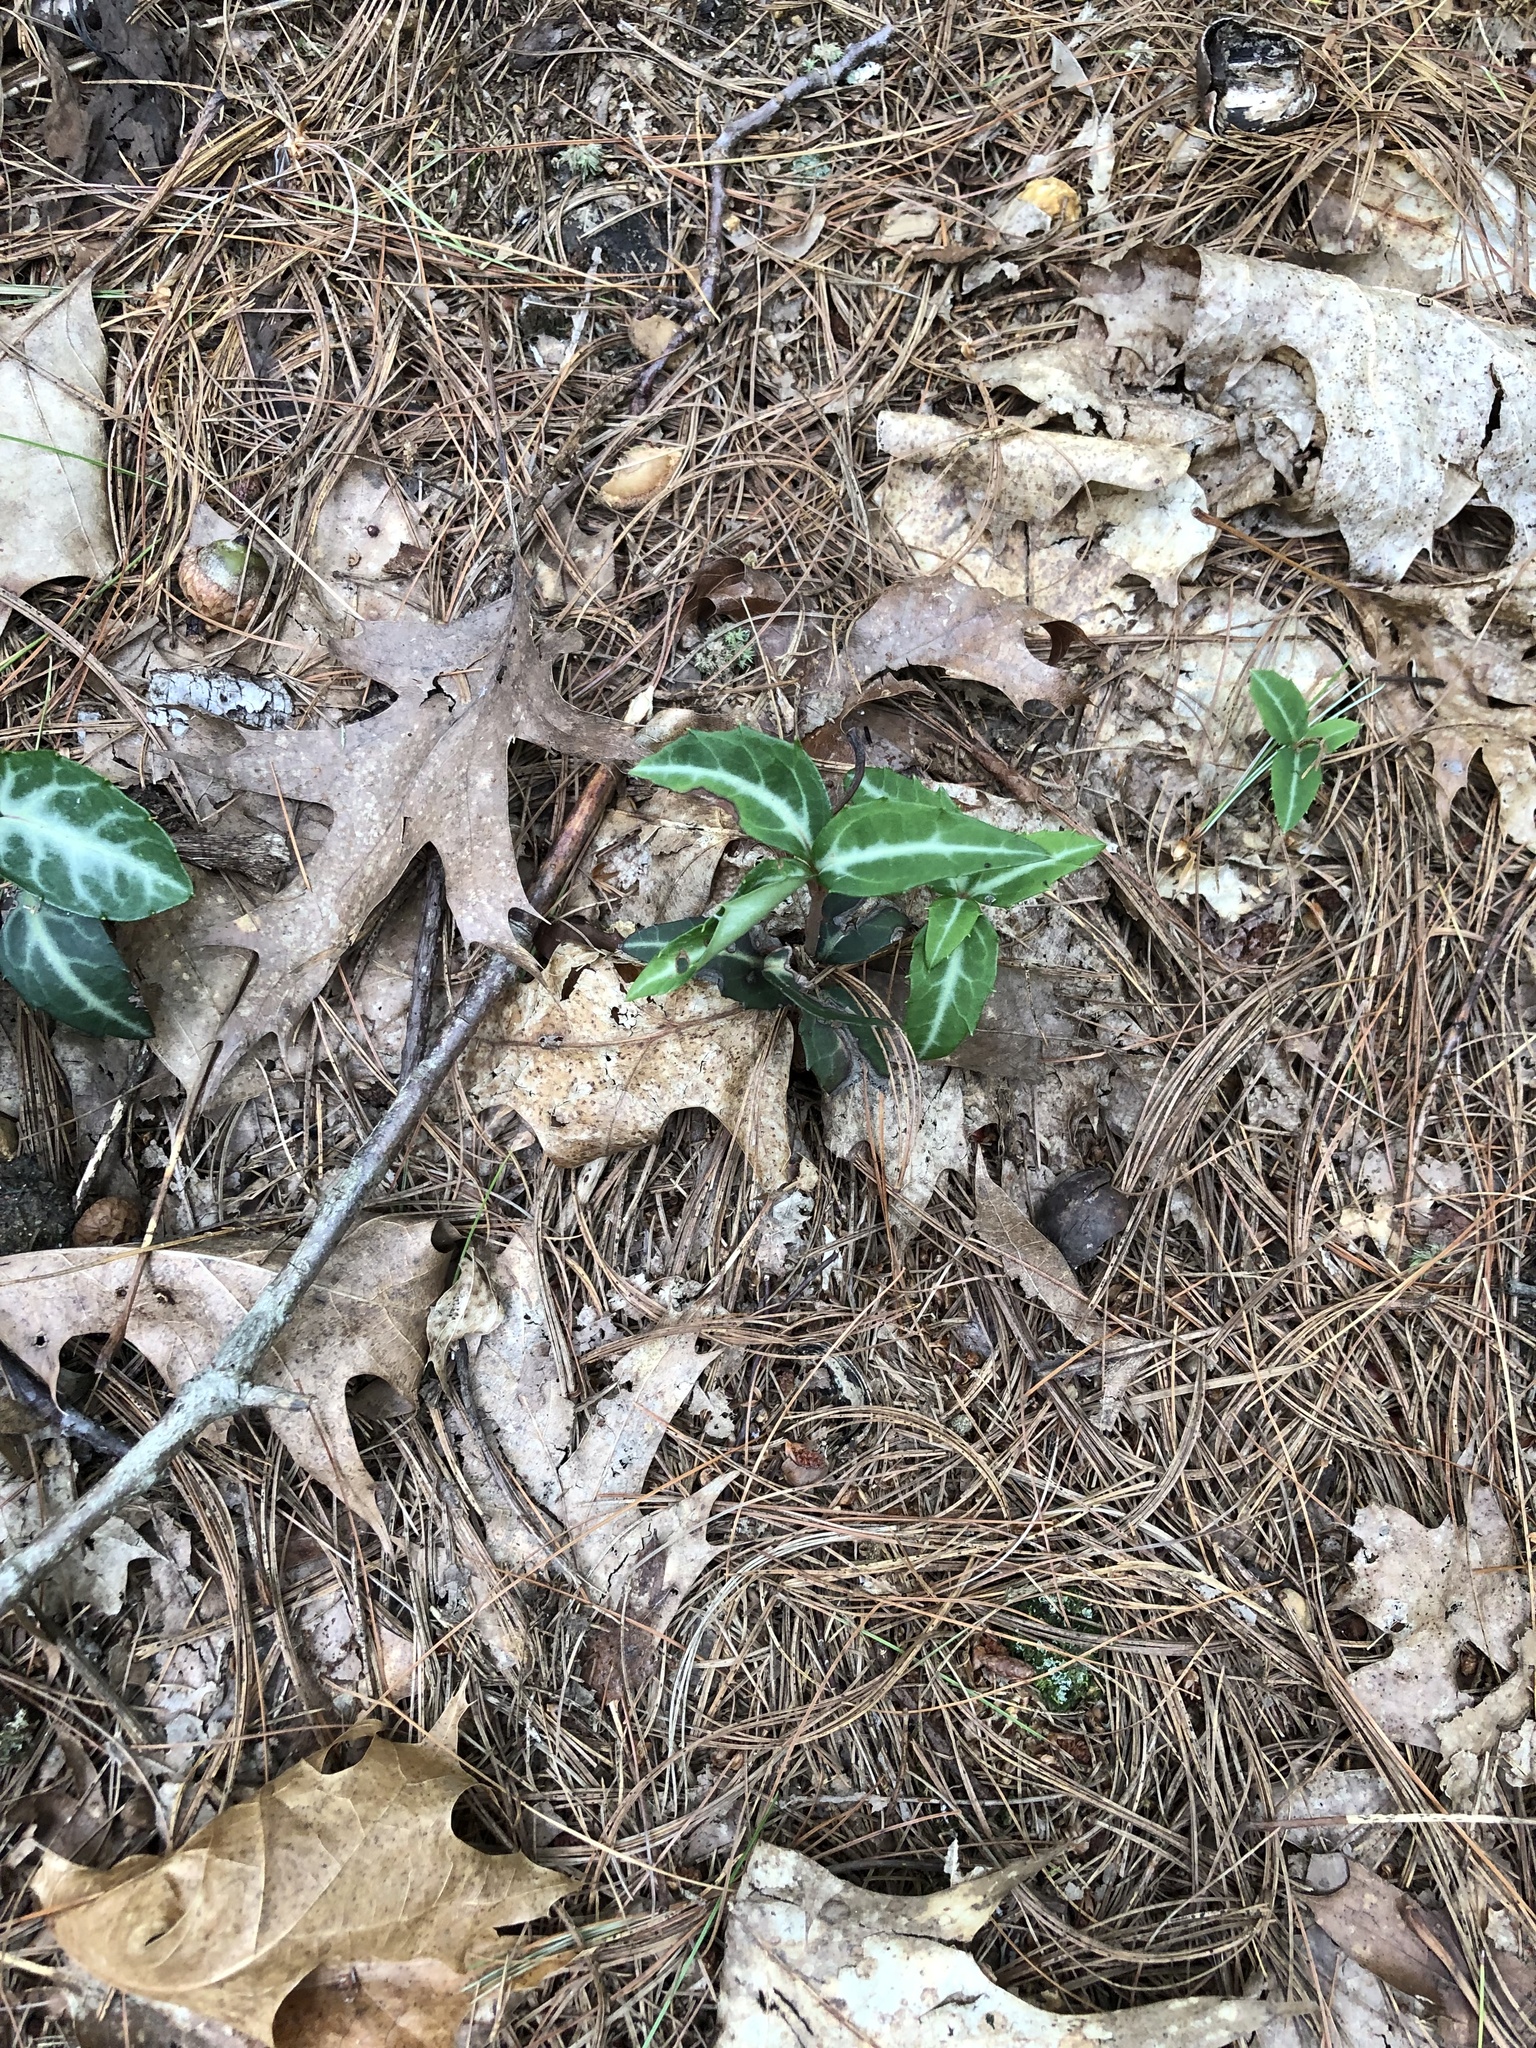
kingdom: Plantae
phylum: Tracheophyta
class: Magnoliopsida
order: Ericales
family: Ericaceae
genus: Chimaphila
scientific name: Chimaphila maculata
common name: Spotted pipsissewa
